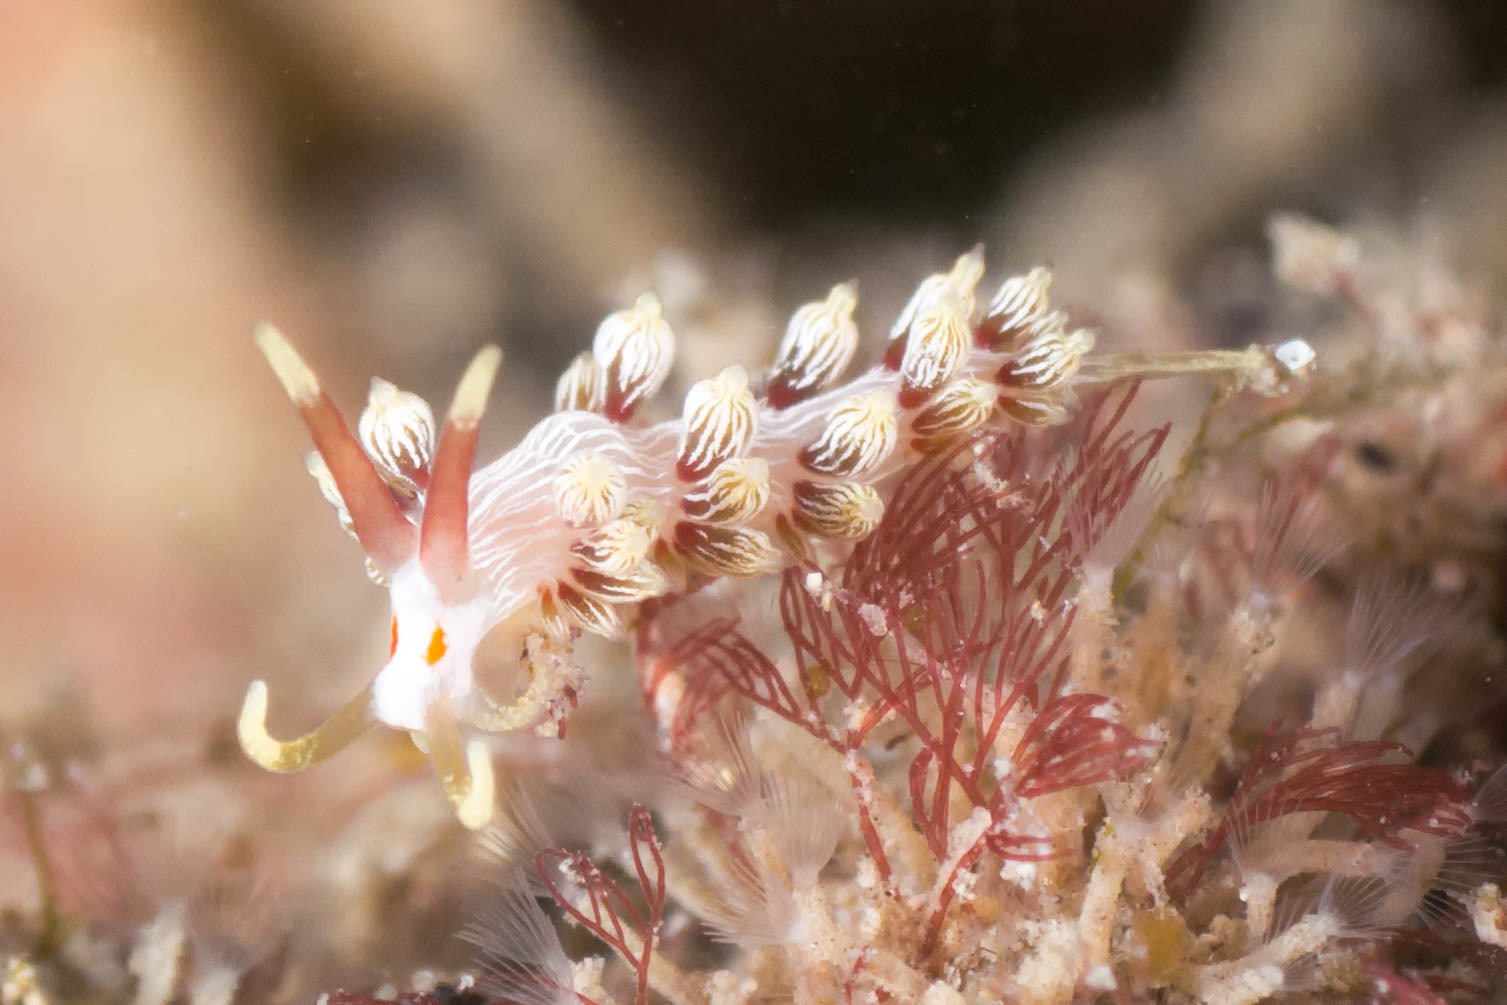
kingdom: Animalia
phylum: Mollusca
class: Gastropoda
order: Nudibranchia
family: Facelinidae
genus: Cratena
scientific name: Cratena lineata
